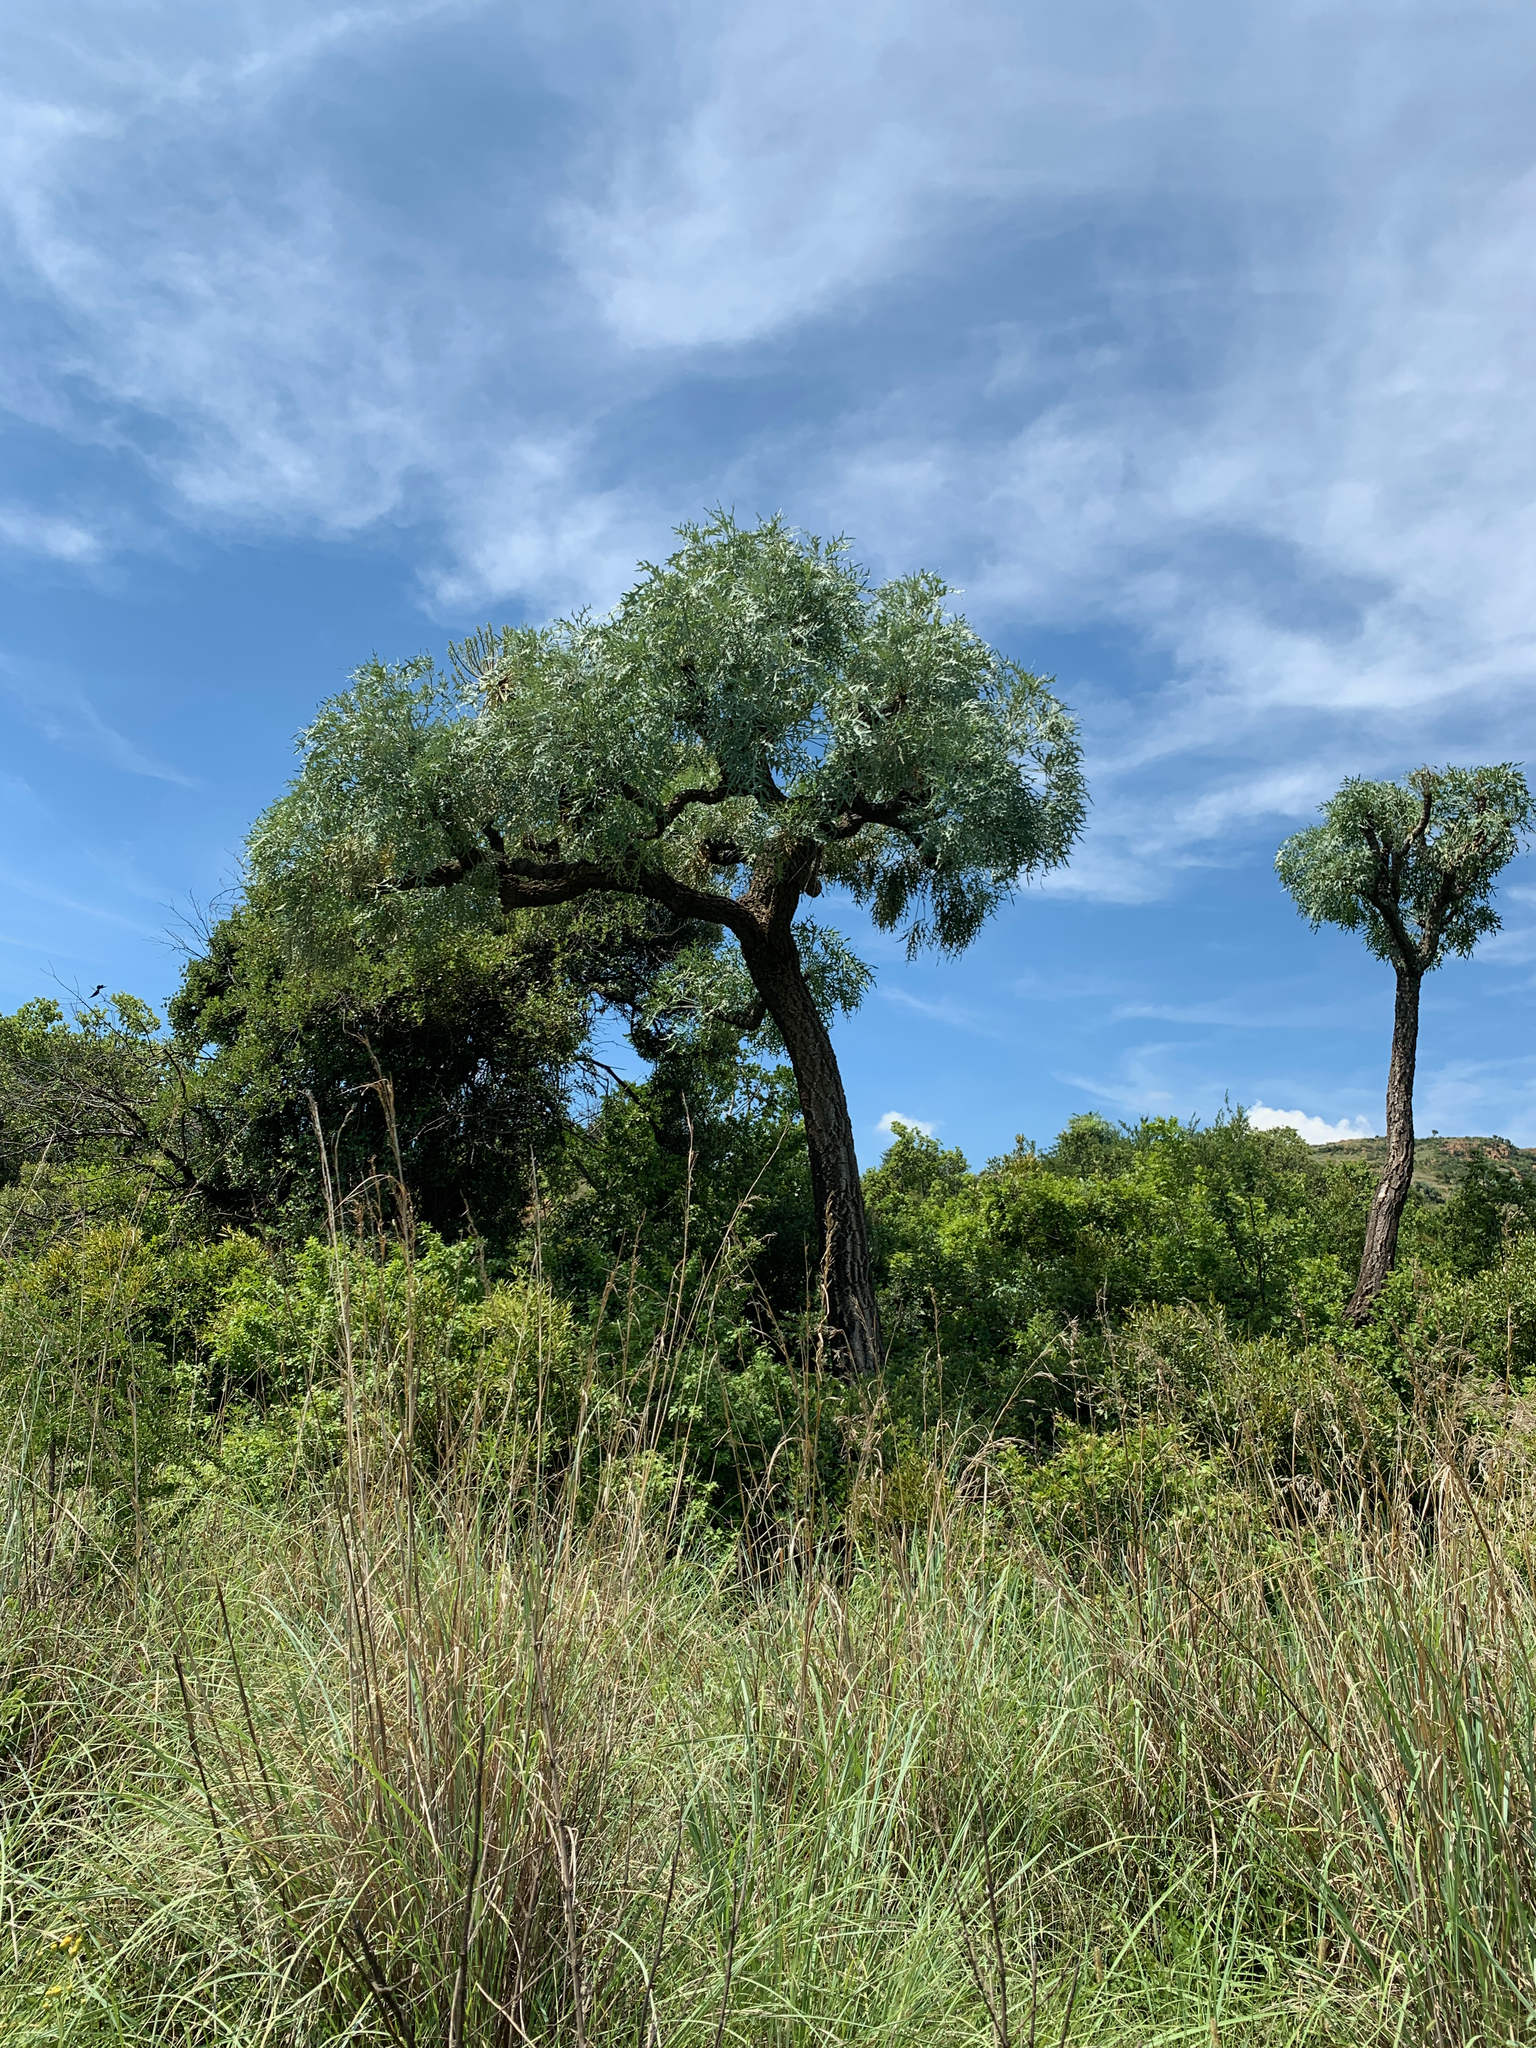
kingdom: Plantae
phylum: Tracheophyta
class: Magnoliopsida
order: Apiales
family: Araliaceae
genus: Cussonia
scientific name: Cussonia paniculata
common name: Cabbagetree
